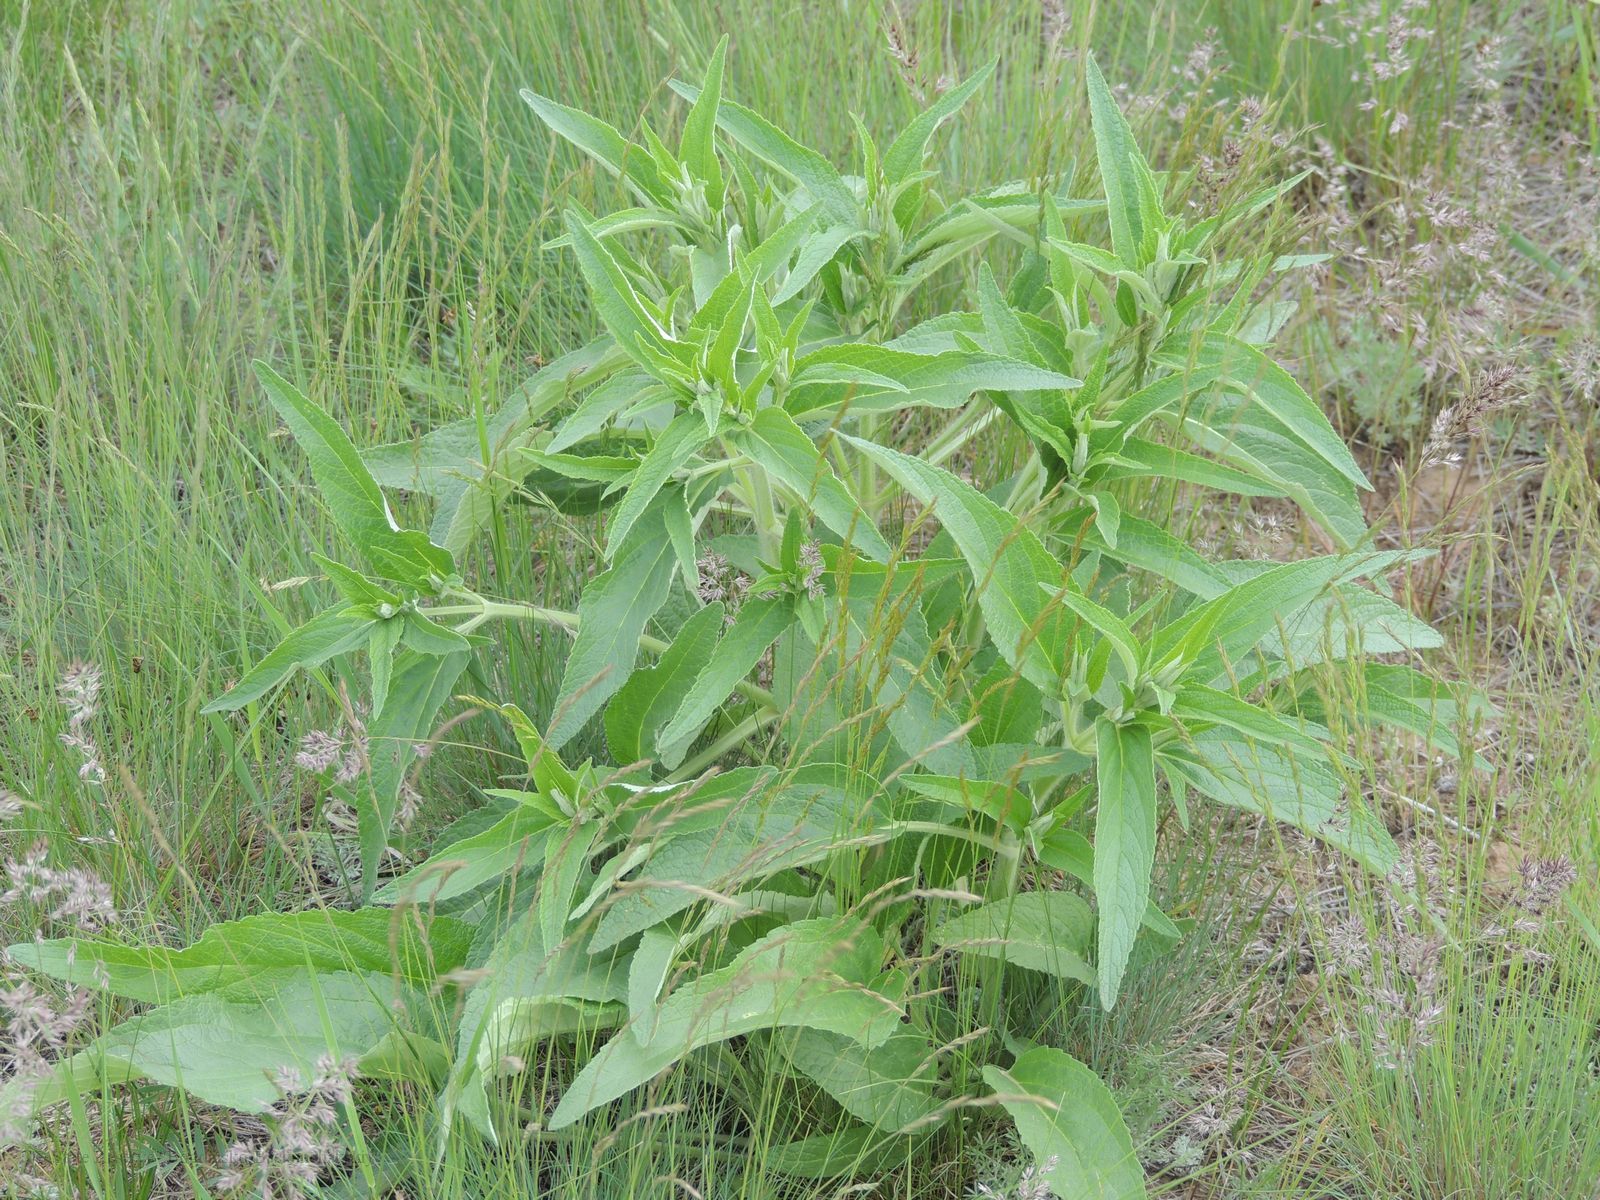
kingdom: Plantae
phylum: Tracheophyta
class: Magnoliopsida
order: Lamiales
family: Lamiaceae
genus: Phlomis
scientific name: Phlomis herba-venti
